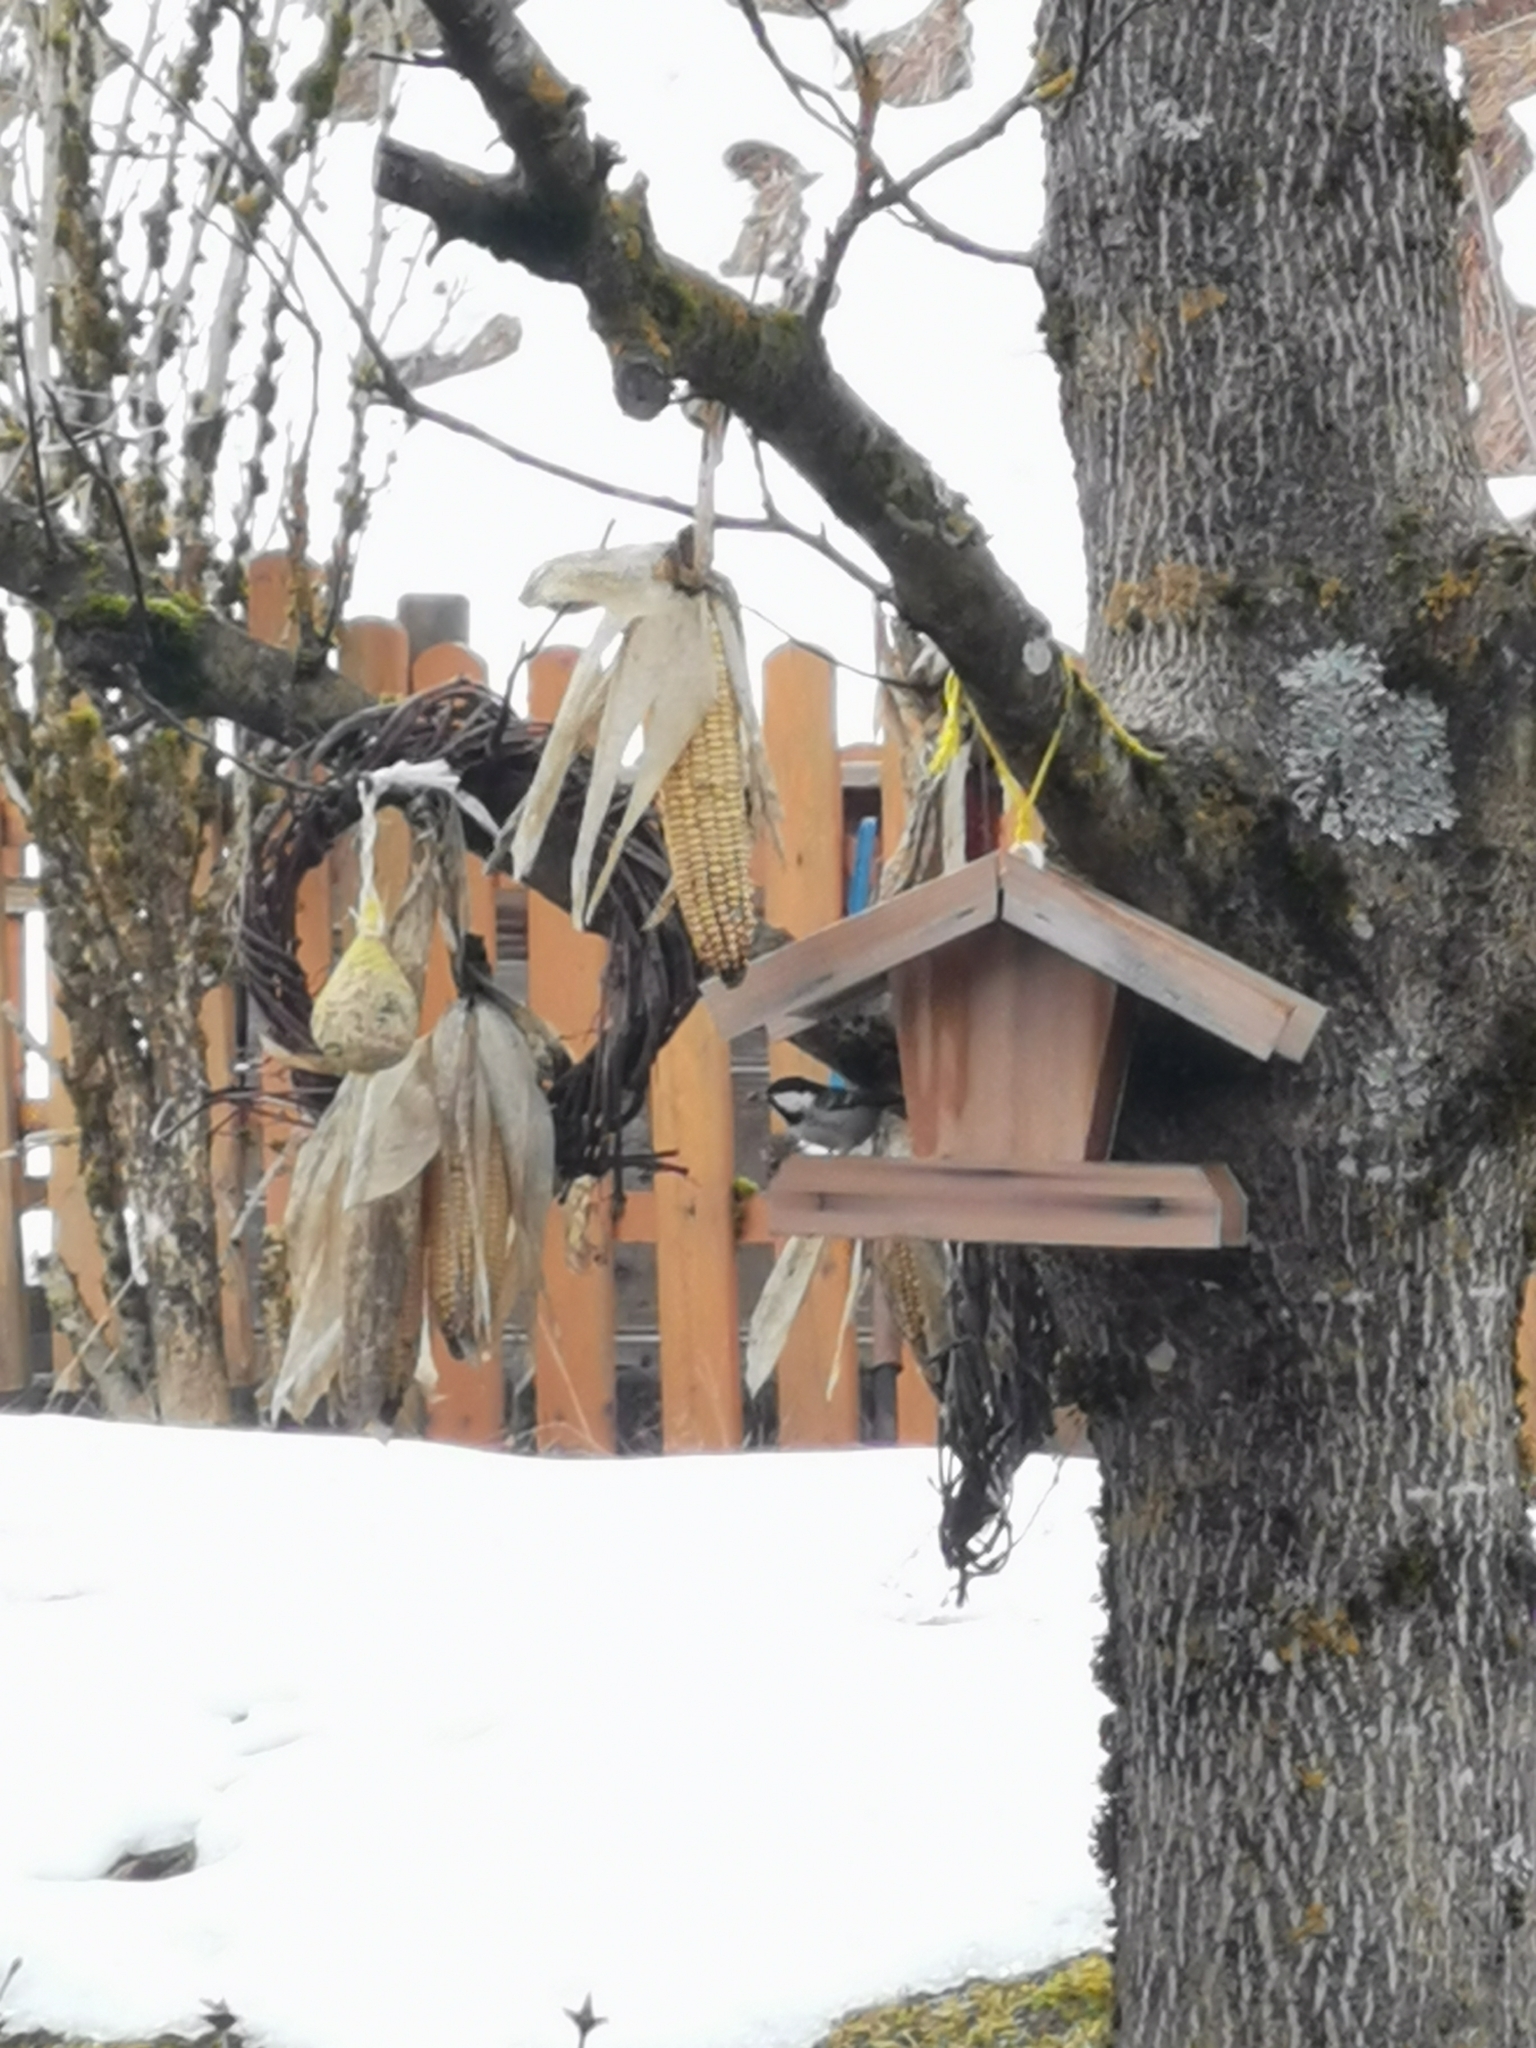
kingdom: Animalia
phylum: Chordata
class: Aves
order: Passeriformes
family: Paridae
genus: Periparus
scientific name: Periparus ater
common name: Coal tit
